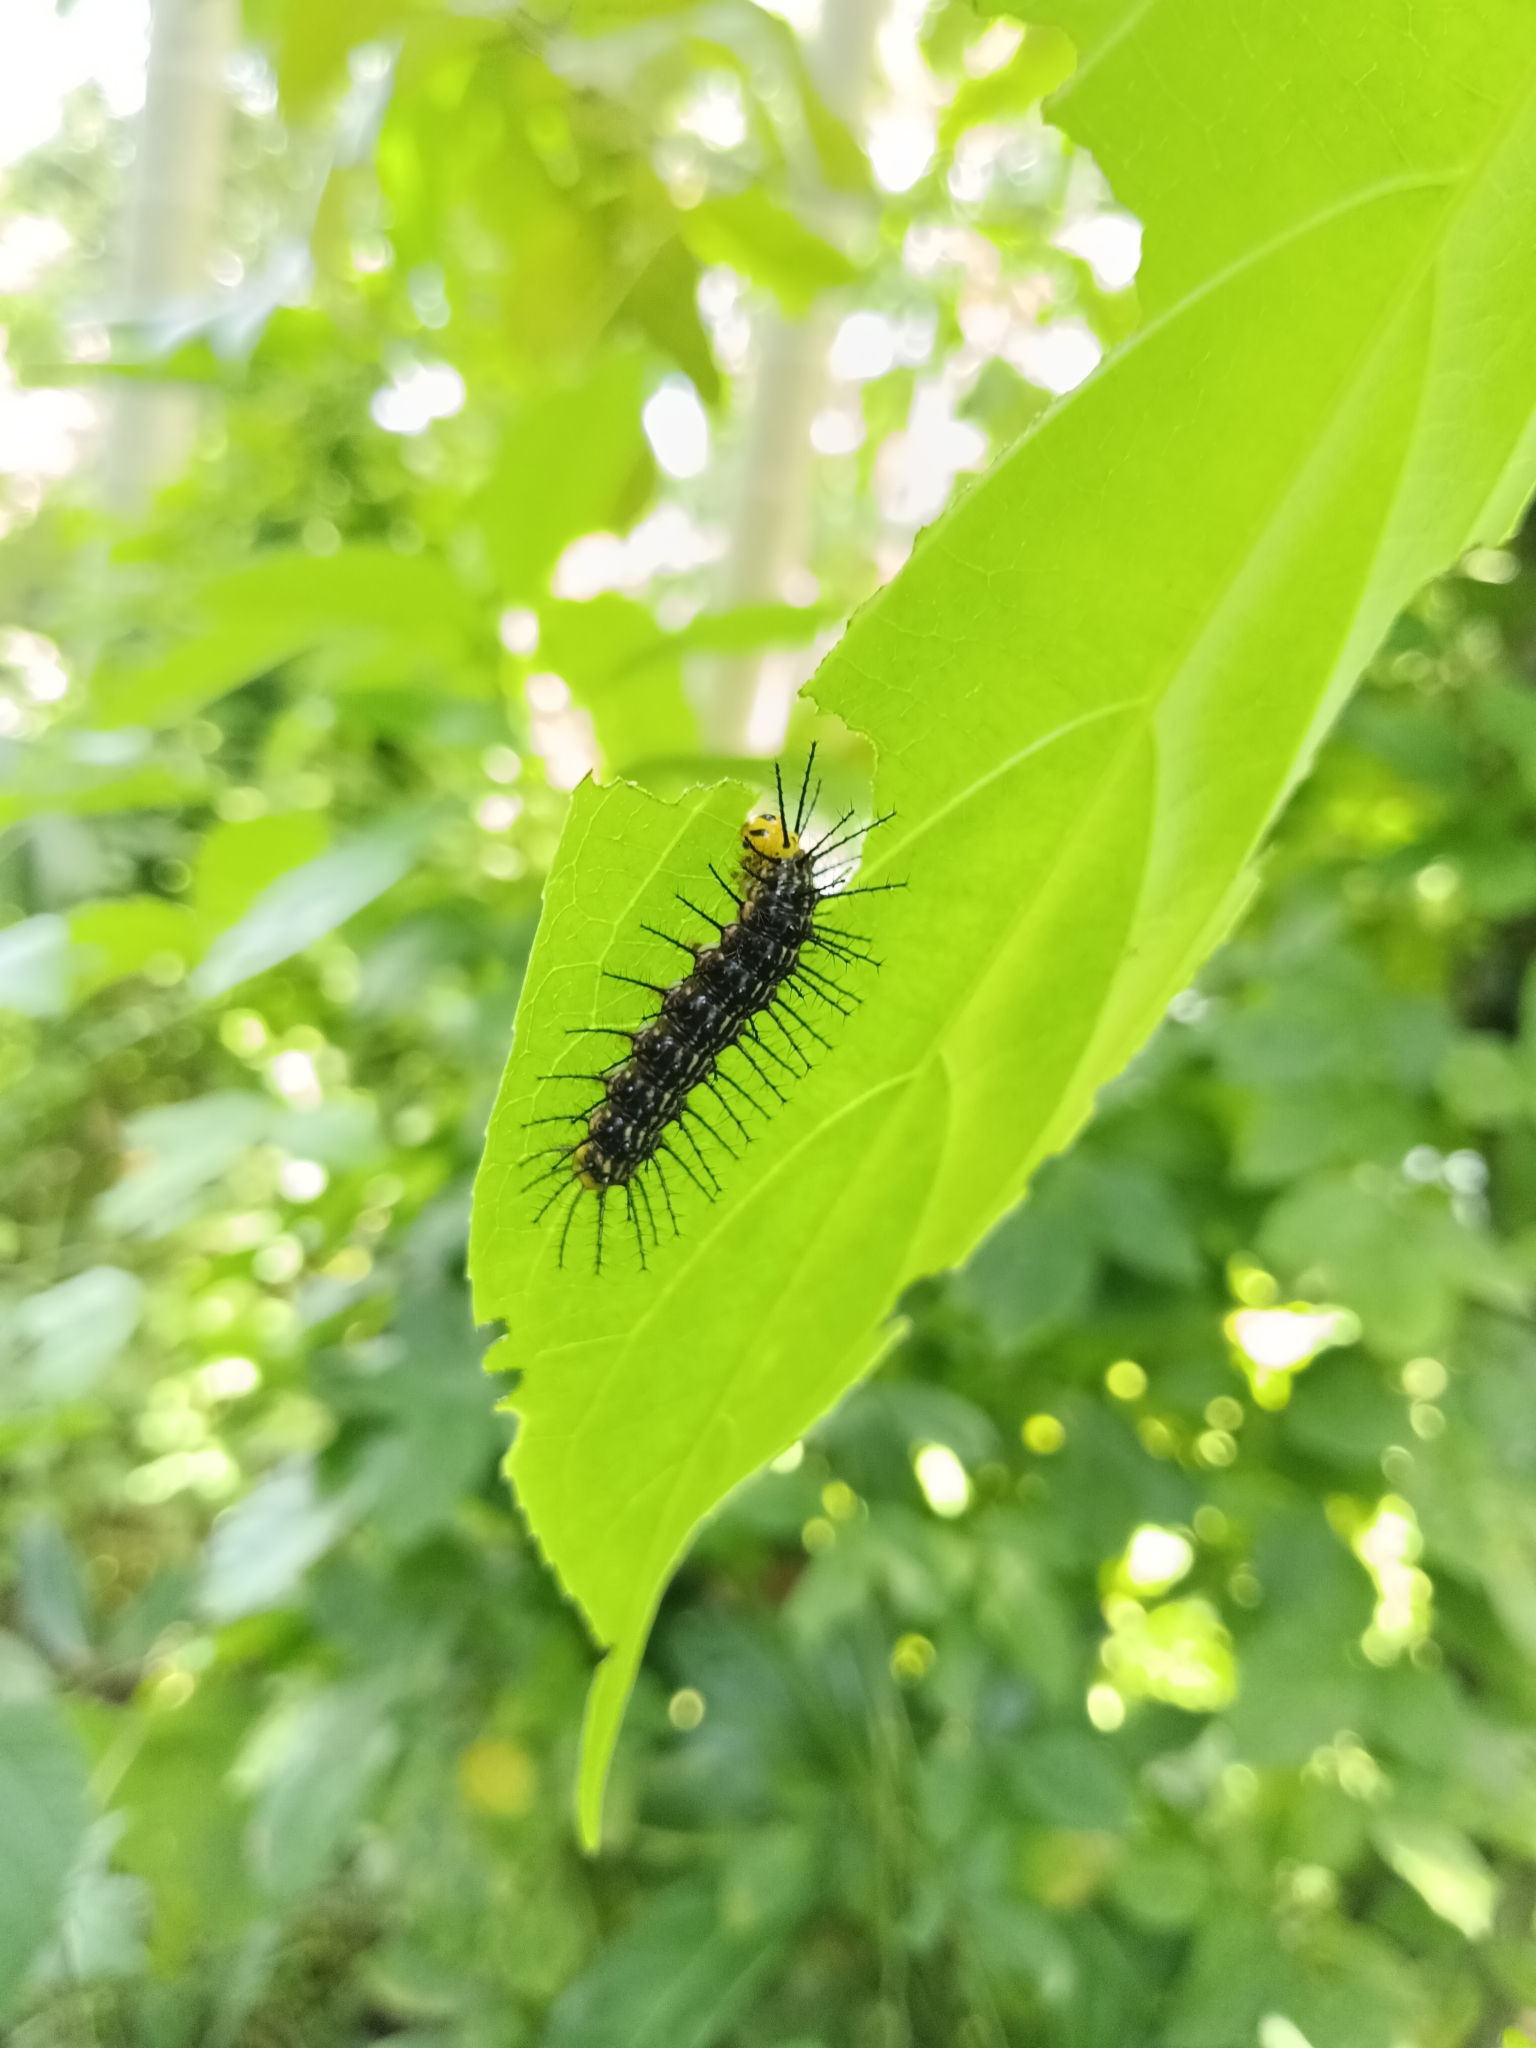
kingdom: Animalia
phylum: Arthropoda
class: Insecta
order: Lepidoptera
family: Nymphalidae
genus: Cirrochroa
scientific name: Cirrochroa thais
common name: Tamil yeoman
